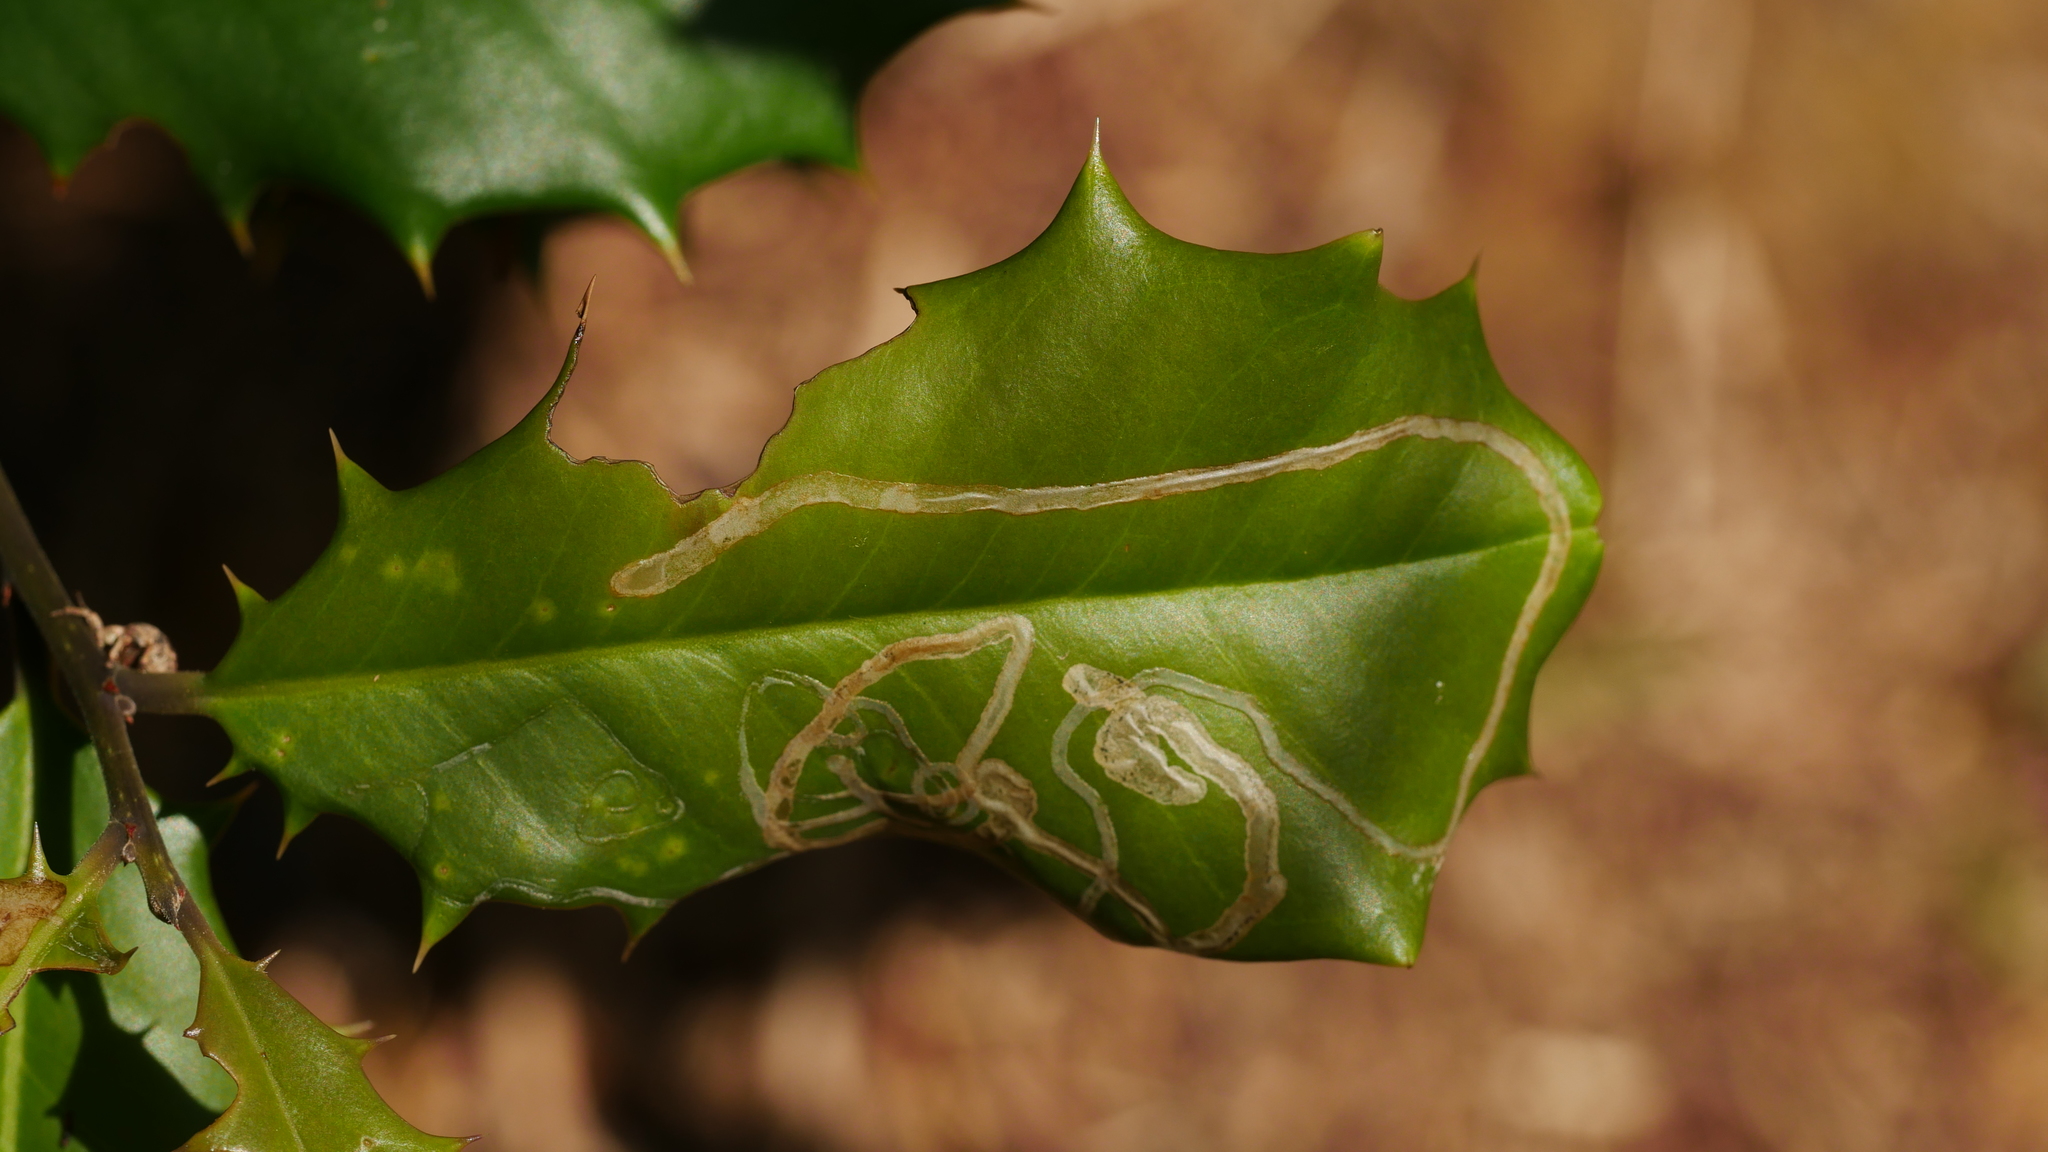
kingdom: Animalia
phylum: Arthropoda
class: Insecta
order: Diptera
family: Agromyzidae
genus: Phytomyza
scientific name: Phytomyza opacae
